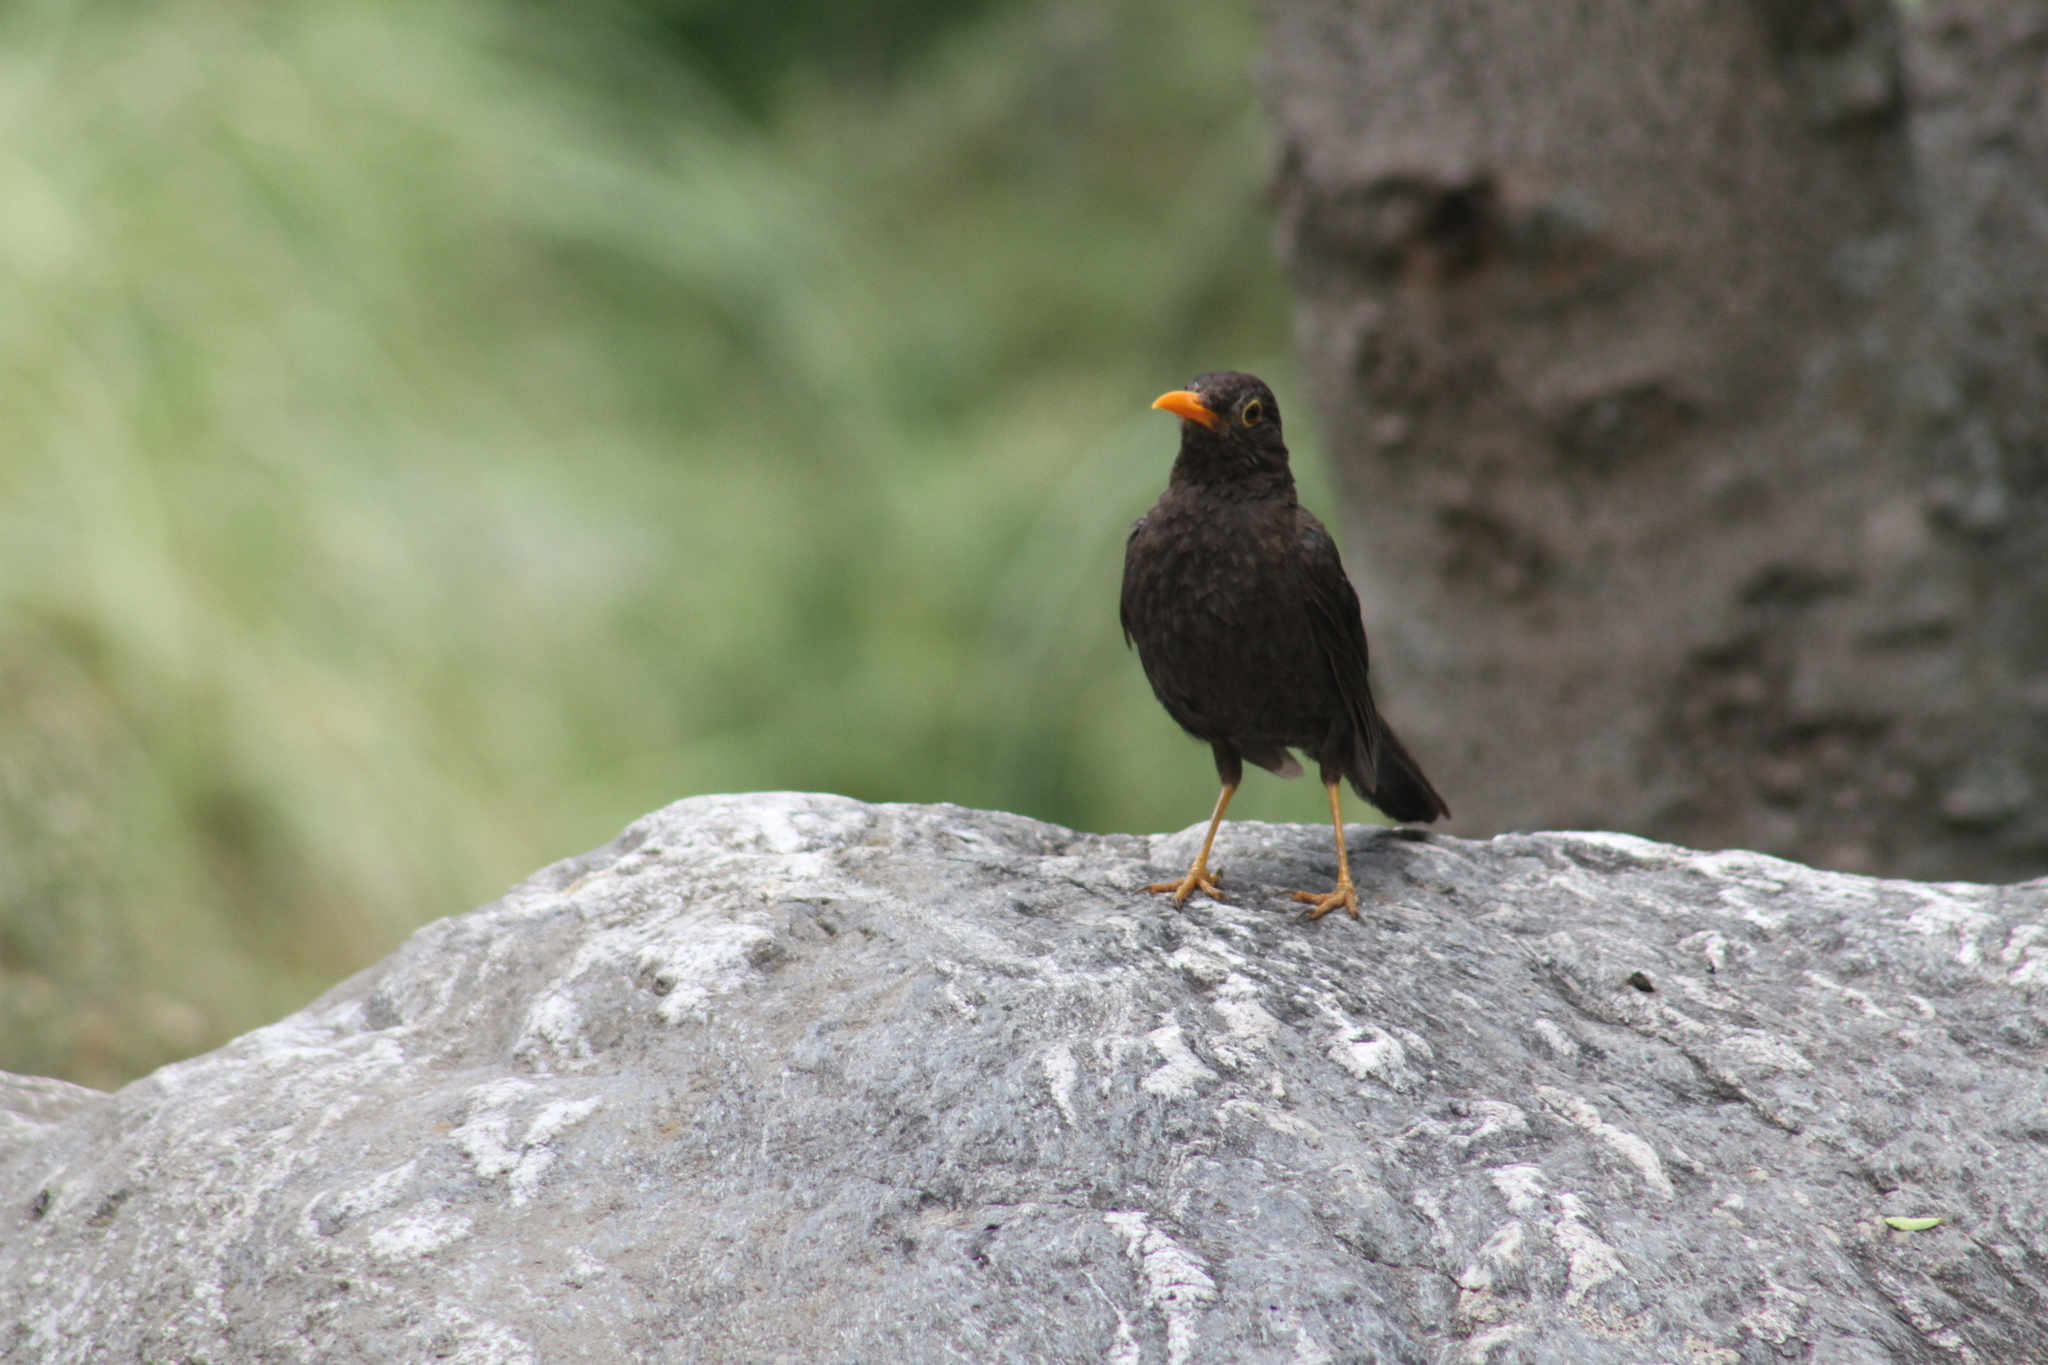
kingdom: Animalia
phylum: Chordata
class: Aves
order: Passeriformes
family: Turdidae
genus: Turdus
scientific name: Turdus chiguanco
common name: Chiguanco thrush
